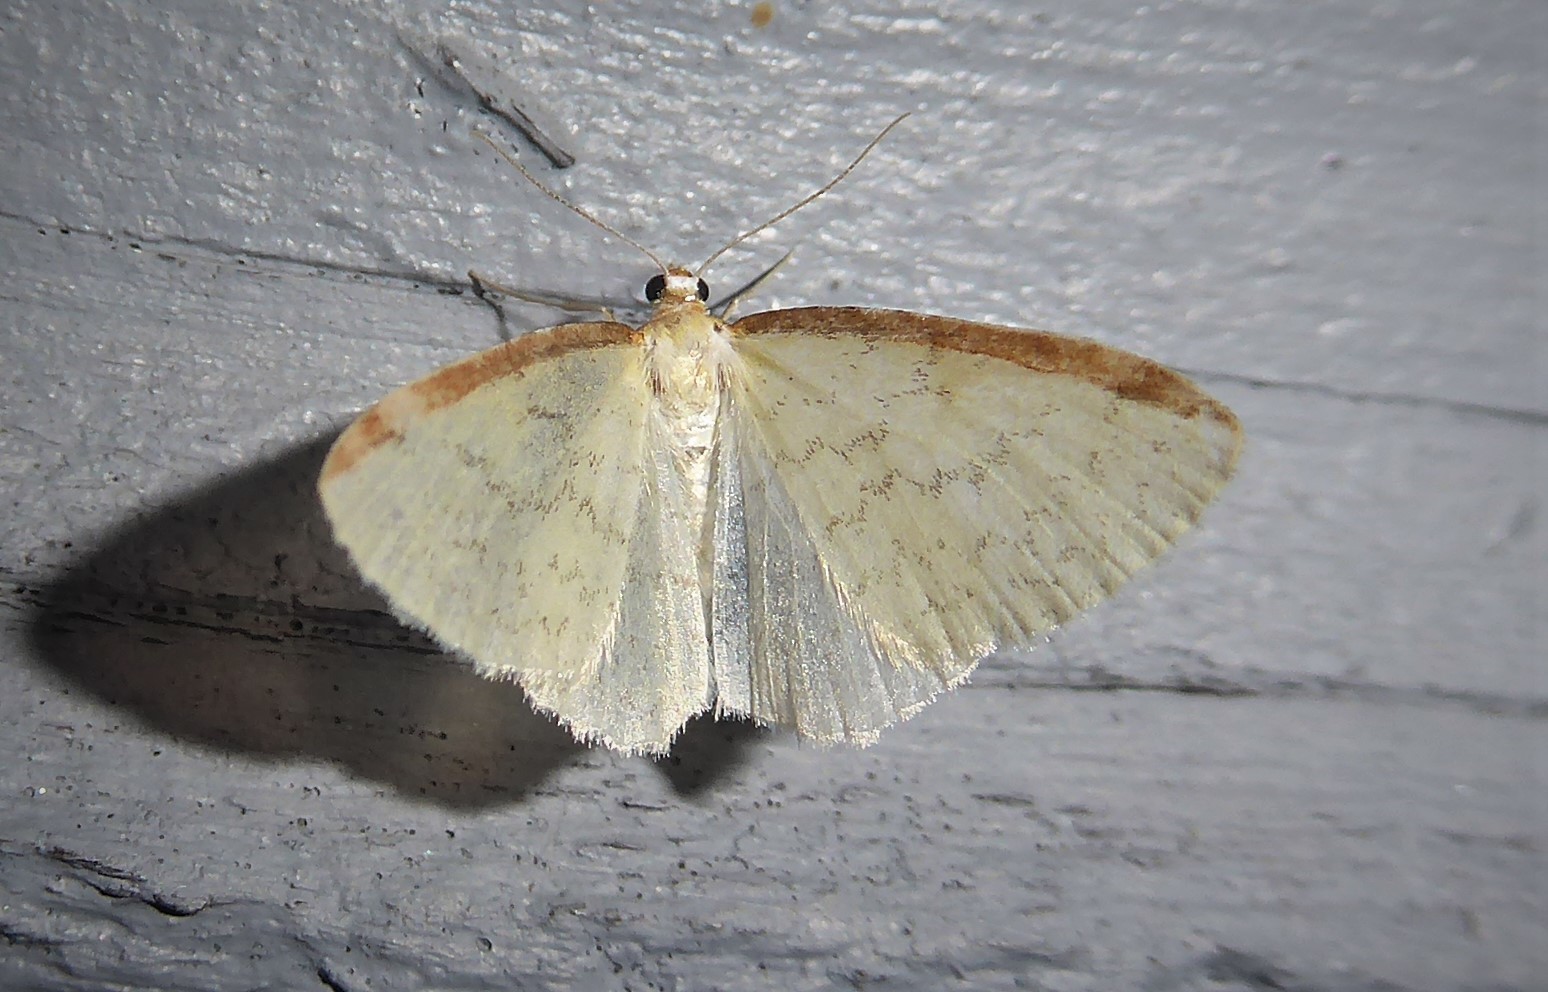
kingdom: Animalia
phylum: Arthropoda
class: Insecta
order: Lepidoptera
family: Geometridae
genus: Epiphryne
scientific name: Epiphryne undosata
